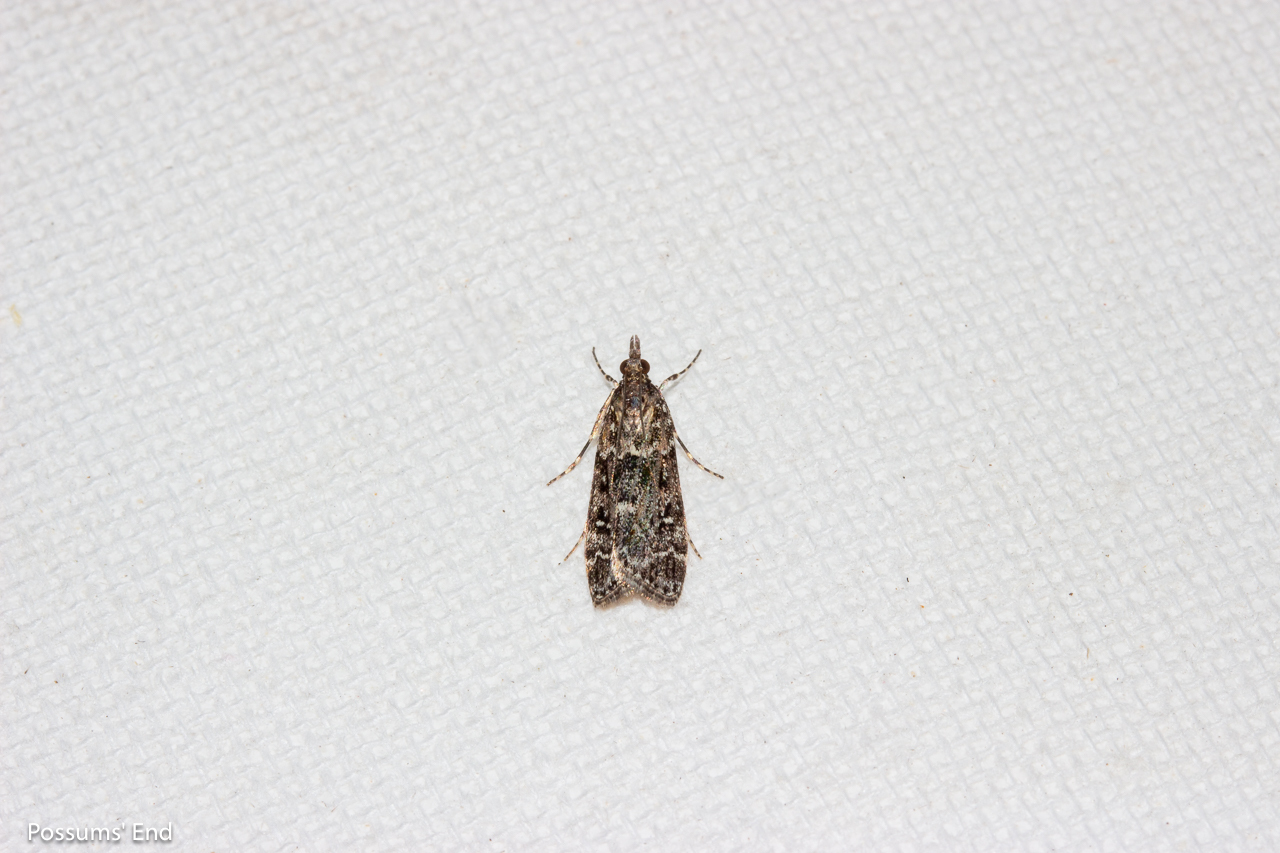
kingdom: Animalia
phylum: Arthropoda
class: Insecta
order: Lepidoptera
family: Crambidae
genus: Eudonia
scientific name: Eudonia philerga
